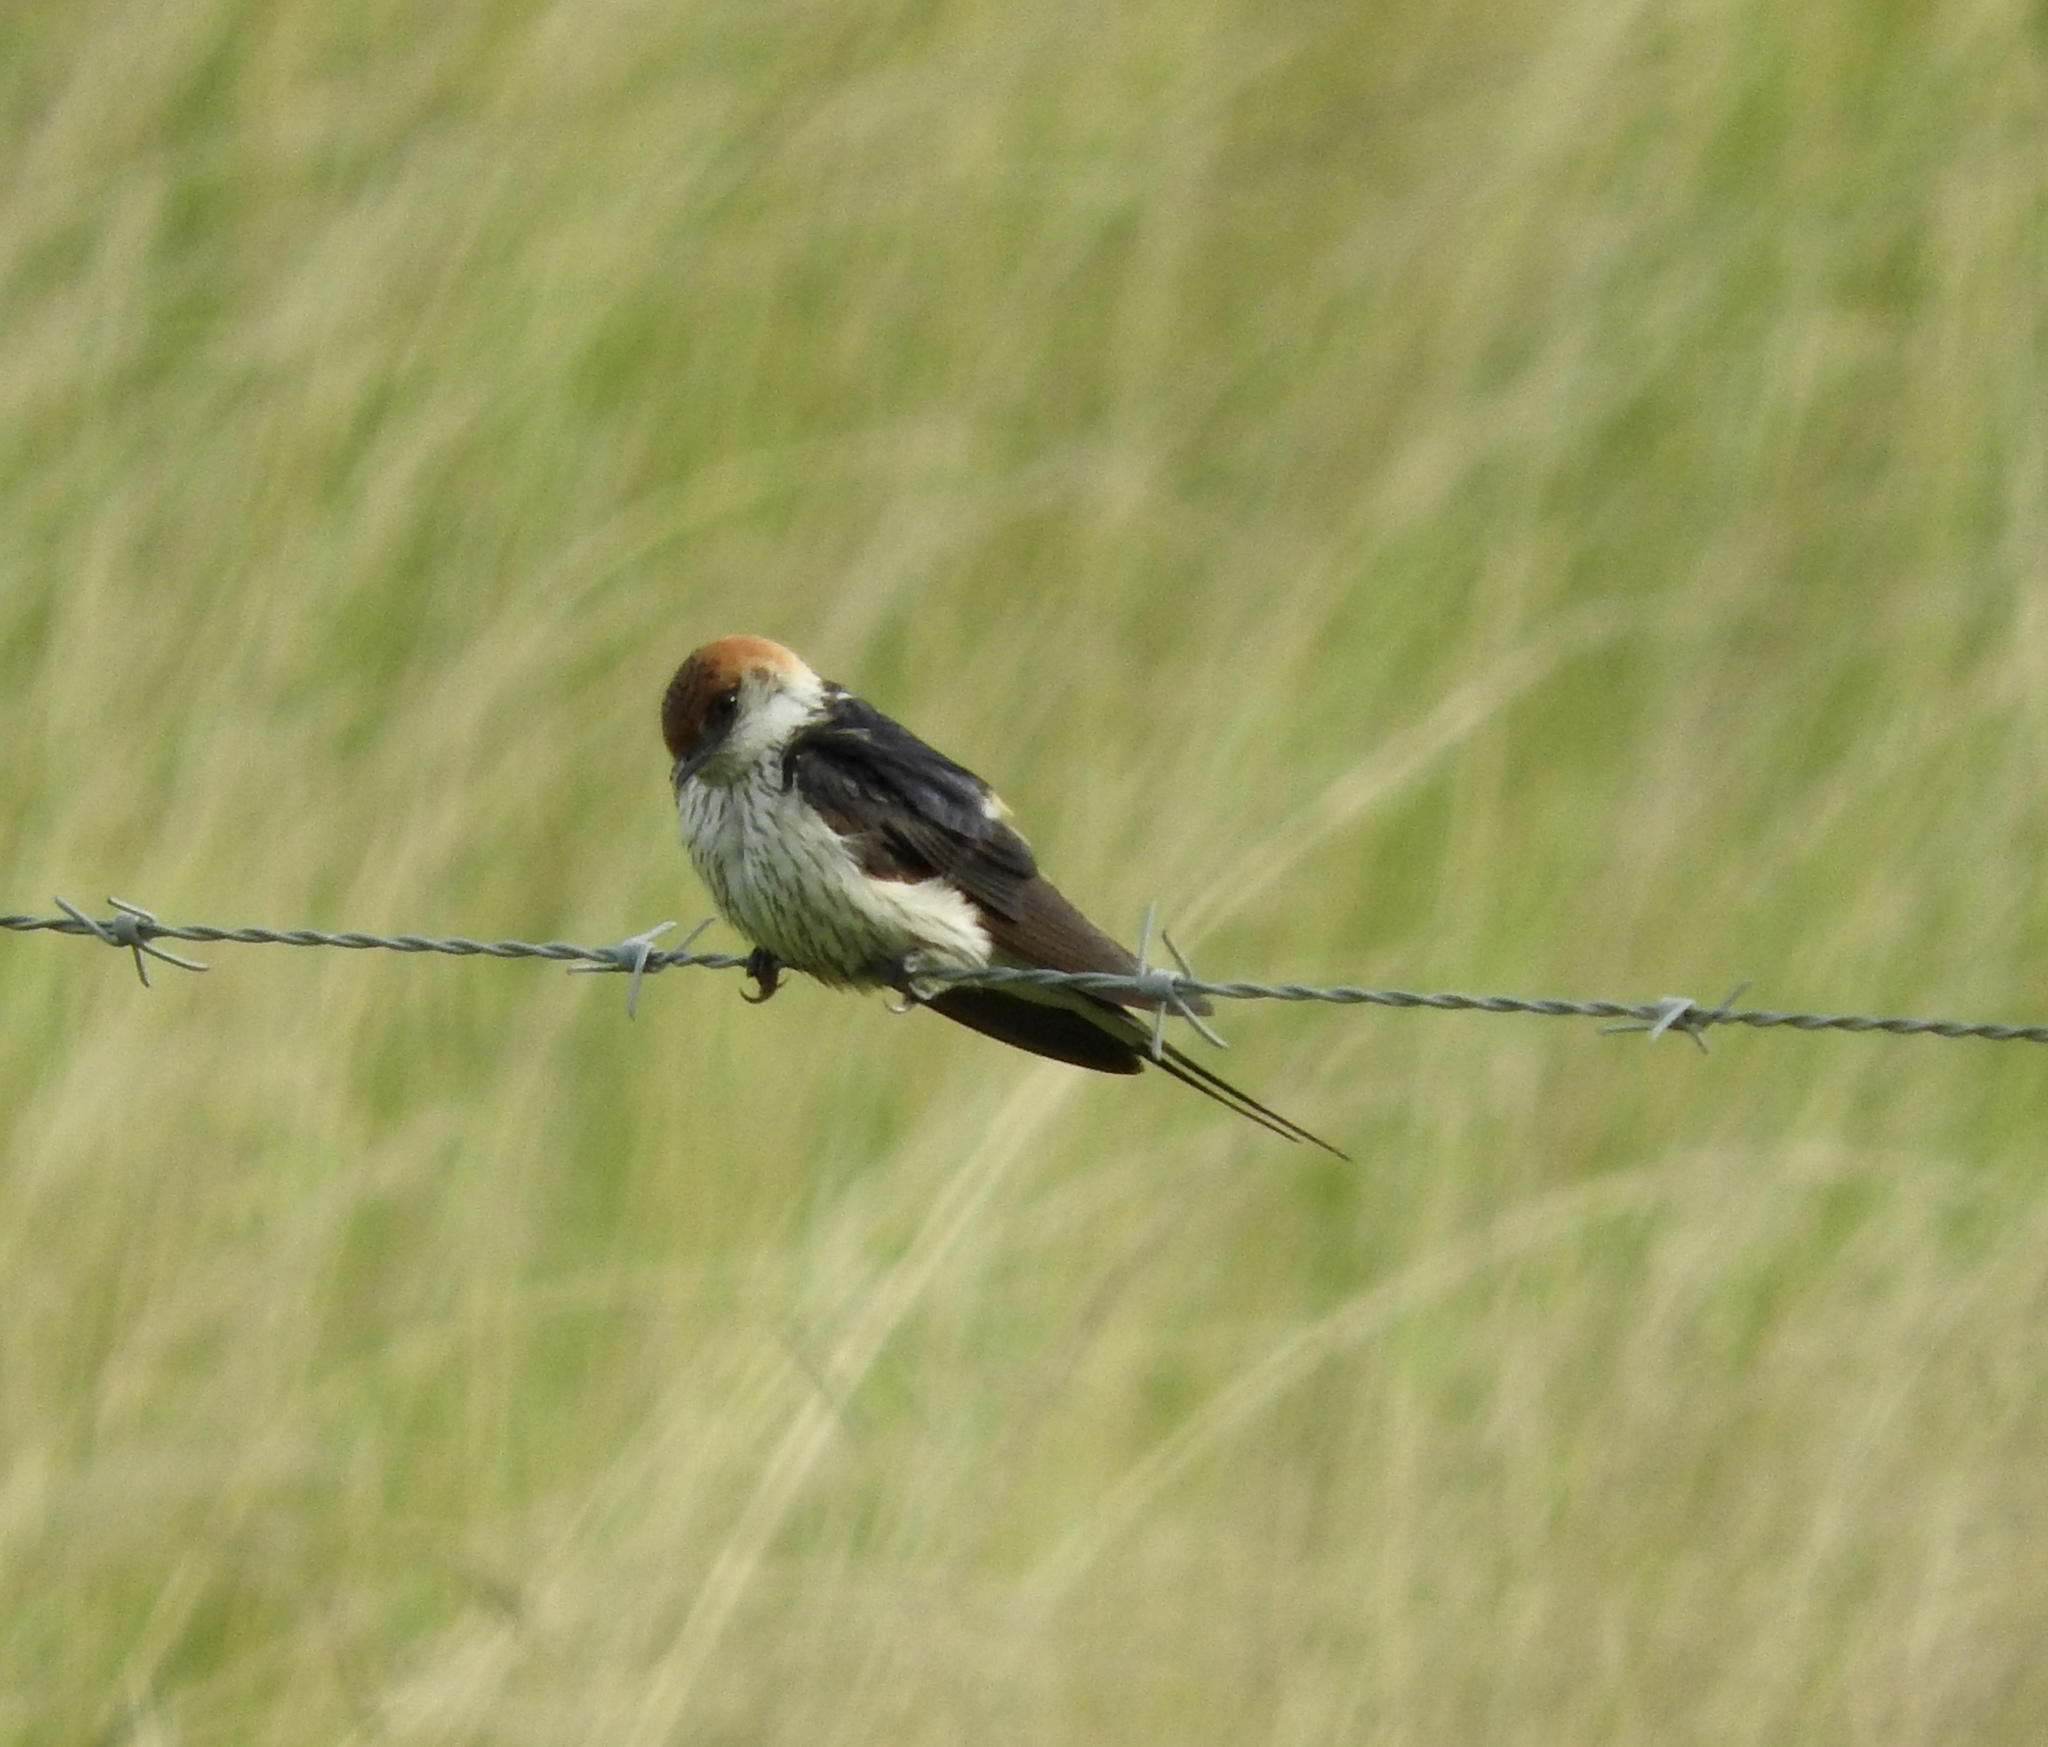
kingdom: Animalia
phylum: Chordata
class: Aves
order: Passeriformes
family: Hirundinidae
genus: Cecropis
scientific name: Cecropis cucullata
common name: Greater striped-swallow
